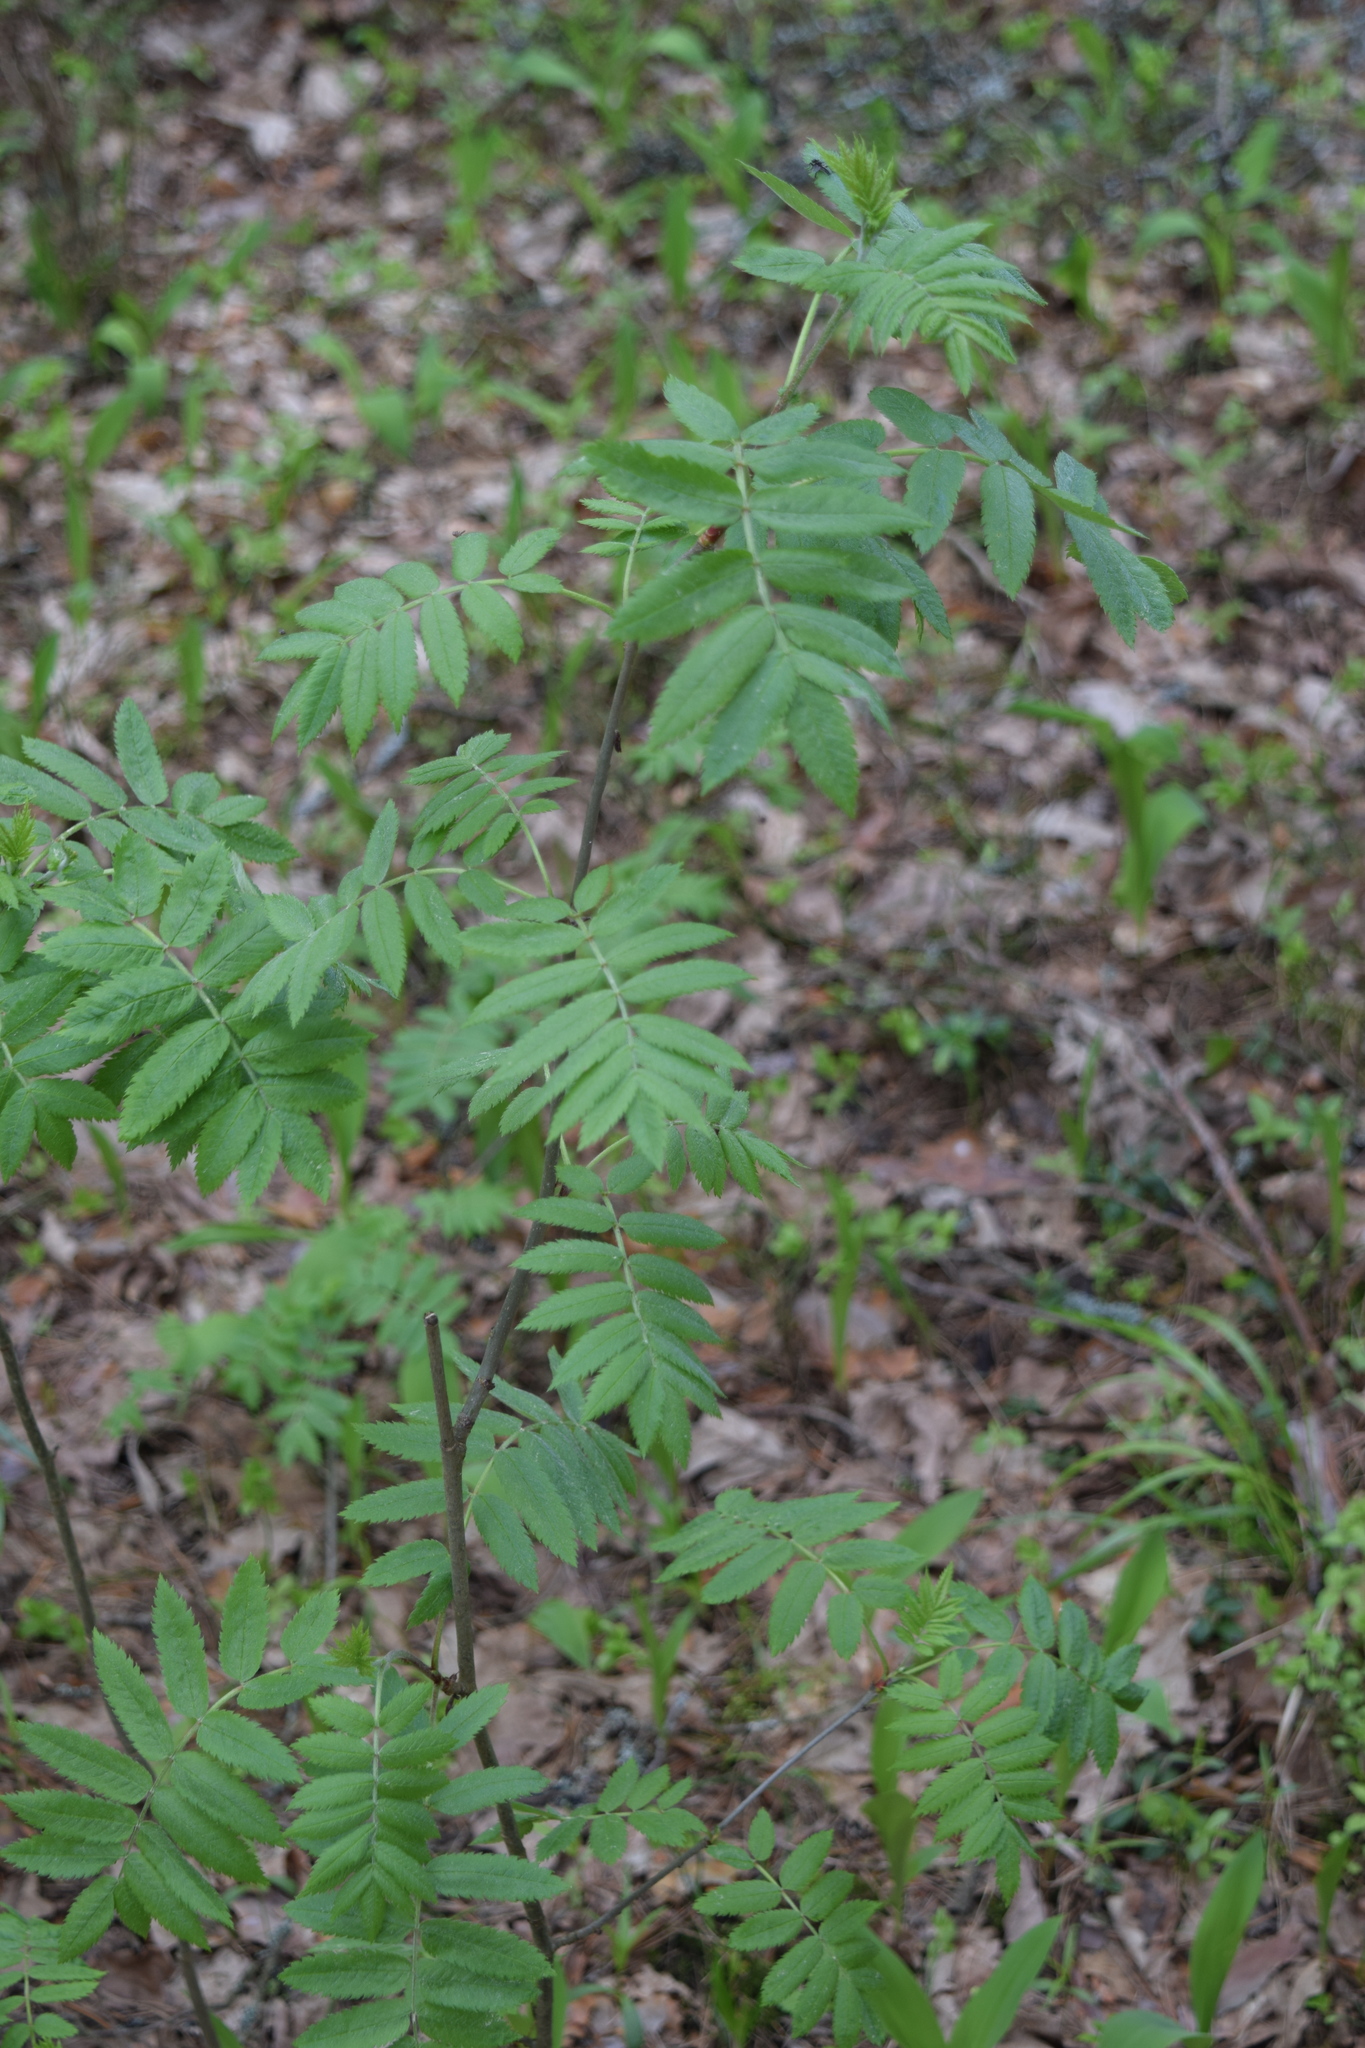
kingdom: Plantae
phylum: Tracheophyta
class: Magnoliopsida
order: Rosales
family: Rosaceae
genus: Sorbus
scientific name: Sorbus aucuparia
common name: Rowan
